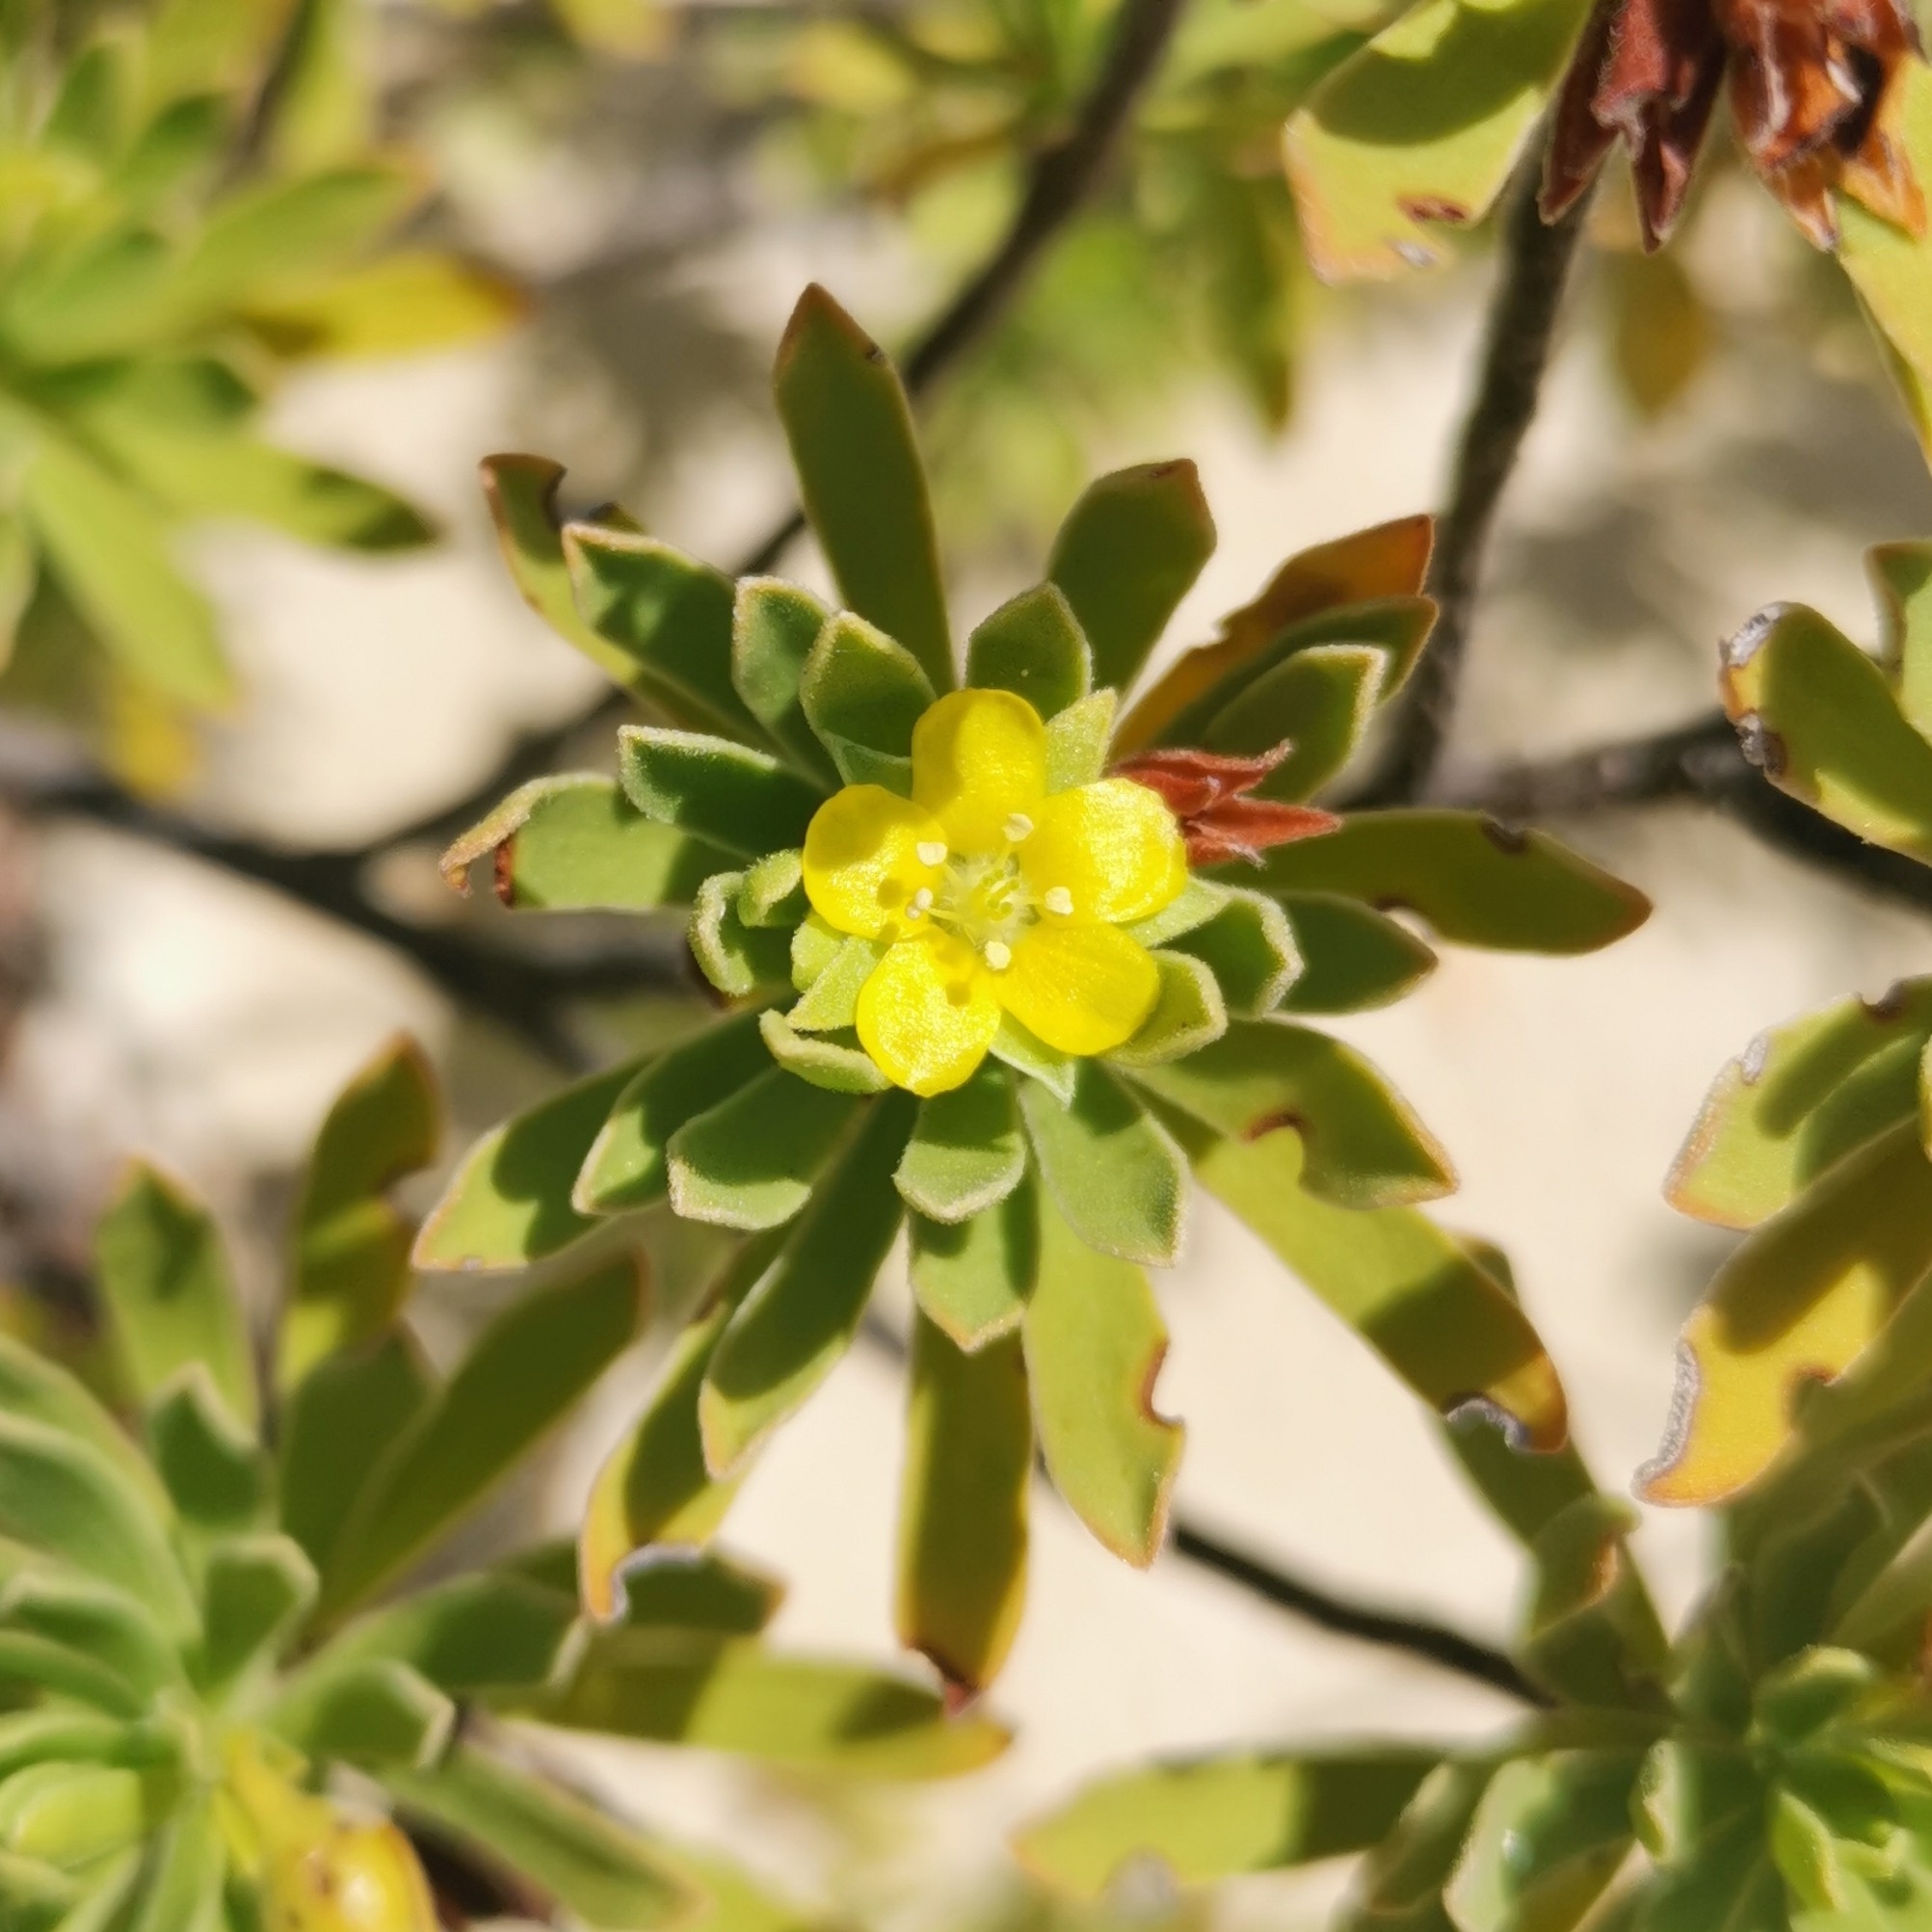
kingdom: Plantae
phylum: Tracheophyta
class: Magnoliopsida
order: Fabales
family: Surianaceae
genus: Suriana
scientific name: Suriana maritima
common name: Bay-cedar
